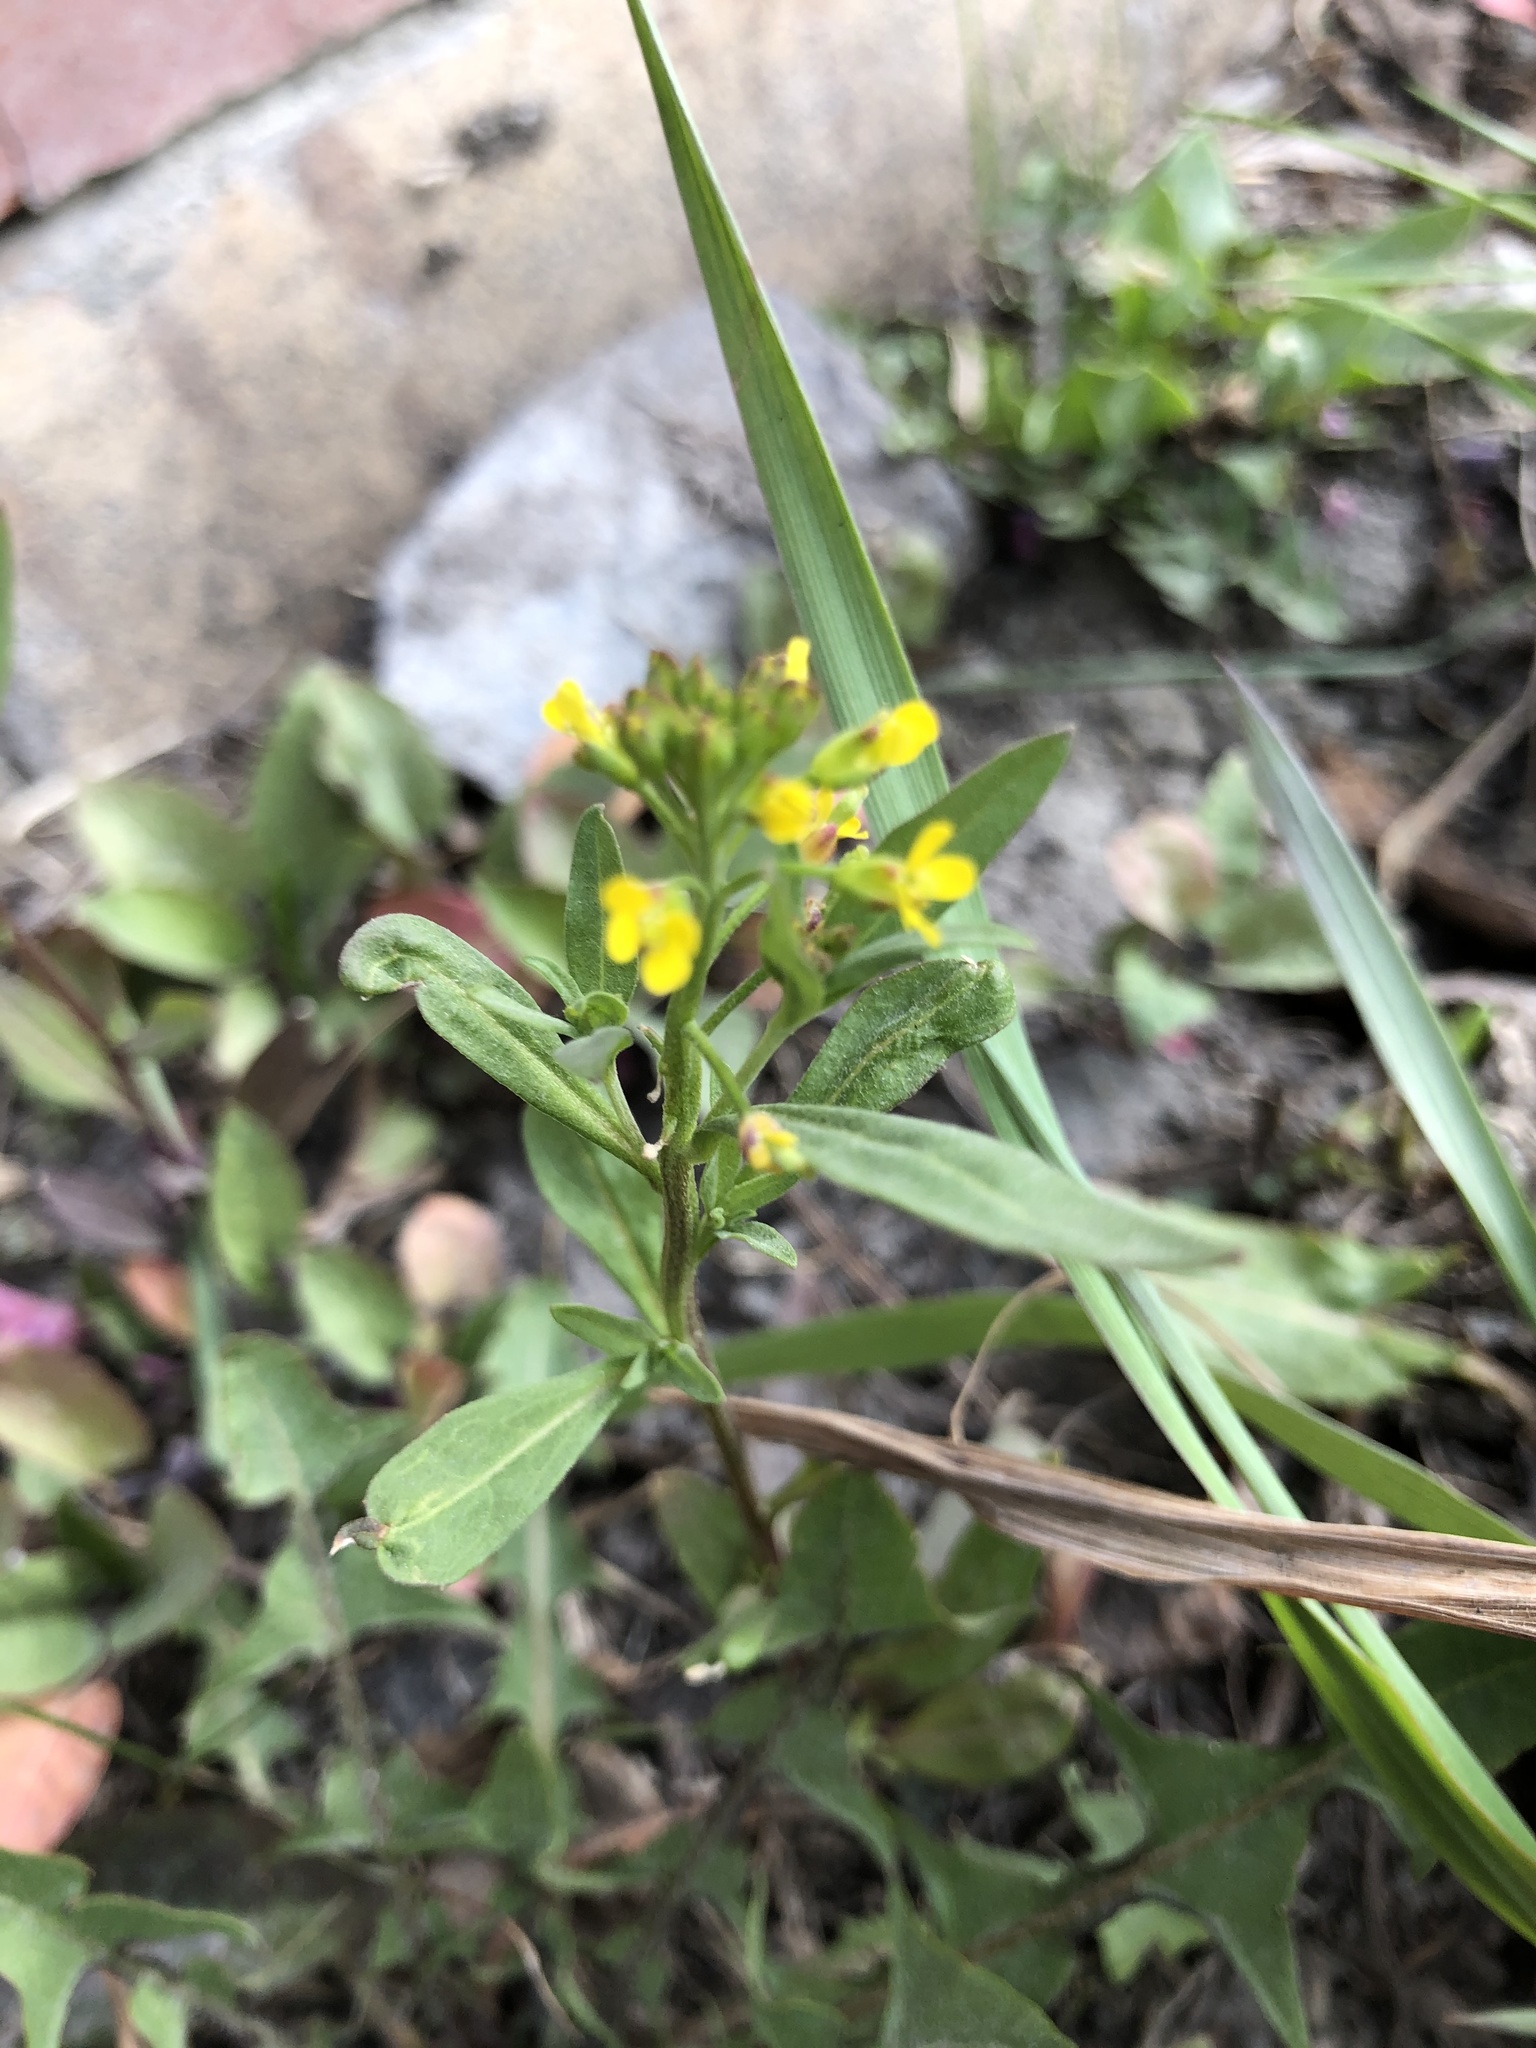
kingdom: Plantae
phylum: Tracheophyta
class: Magnoliopsida
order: Brassicales
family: Brassicaceae
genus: Erysimum
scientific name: Erysimum cheiranthoides
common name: Treacle mustard
